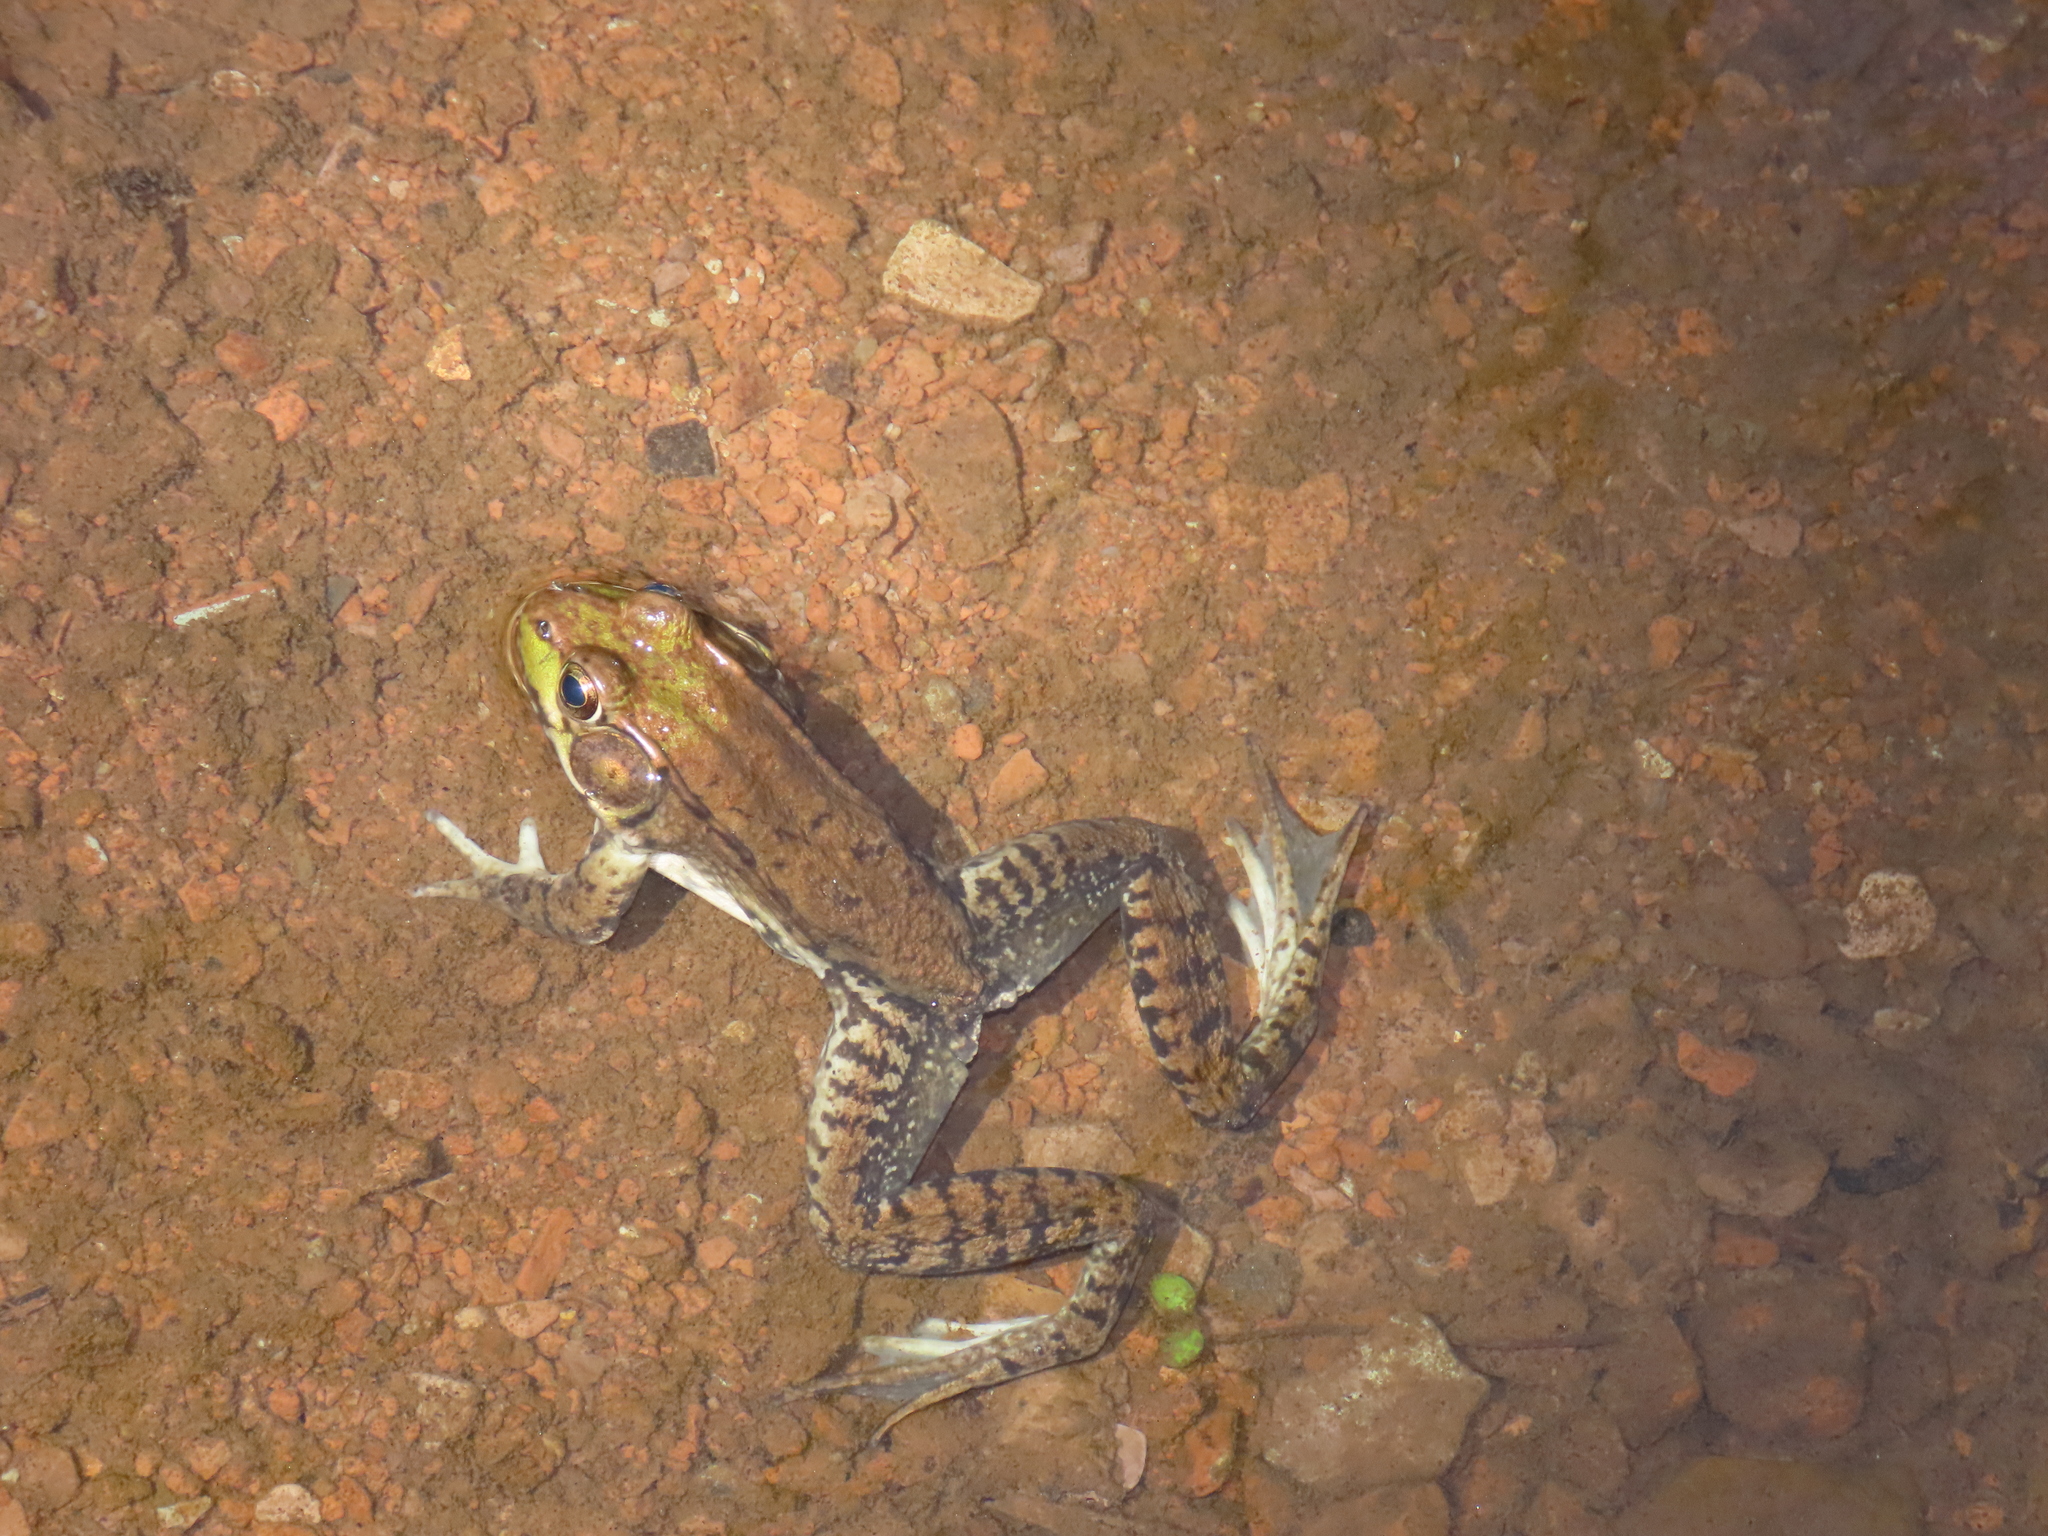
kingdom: Animalia
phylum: Chordata
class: Amphibia
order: Anura
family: Ranidae
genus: Lithobates
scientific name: Lithobates clamitans
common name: Green frog
